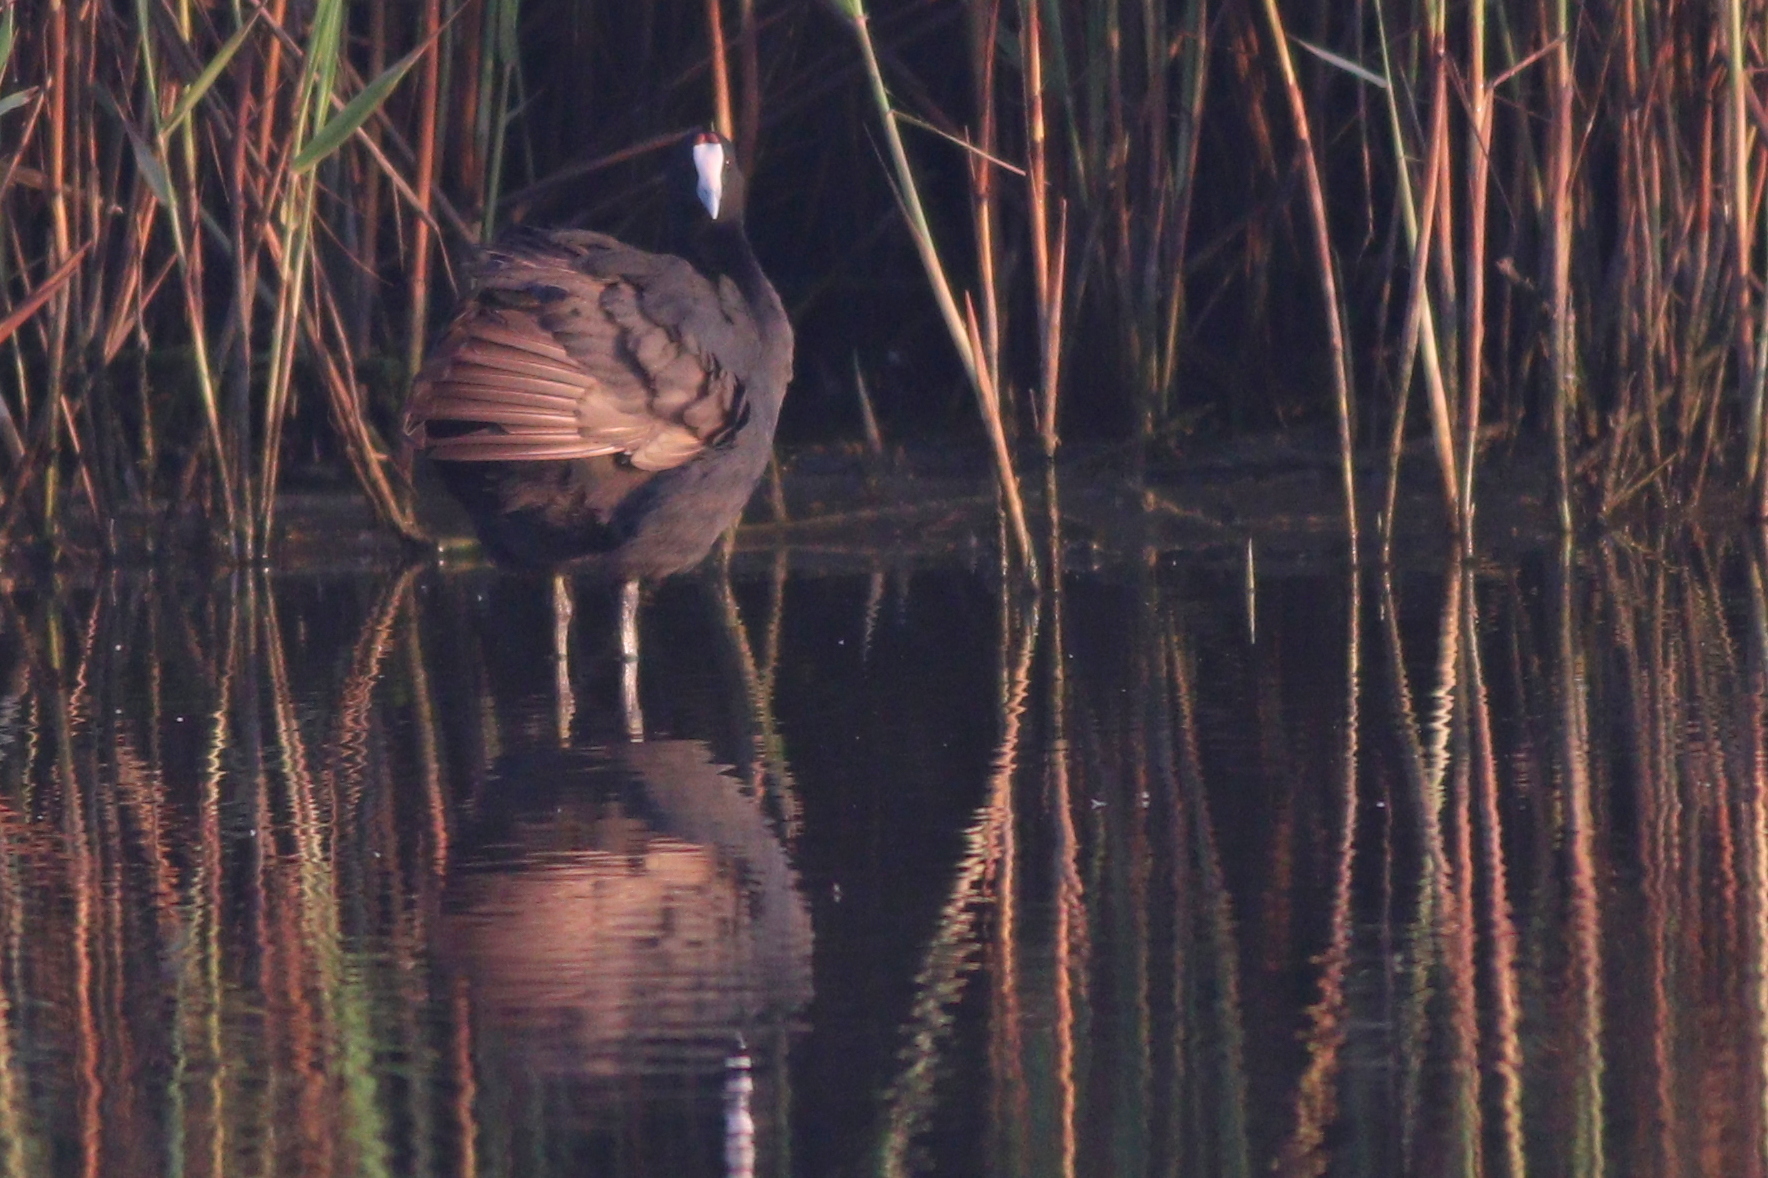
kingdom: Animalia
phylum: Chordata
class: Aves
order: Gruiformes
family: Rallidae
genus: Fulica
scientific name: Fulica cristata
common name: Red-knobbed coot
